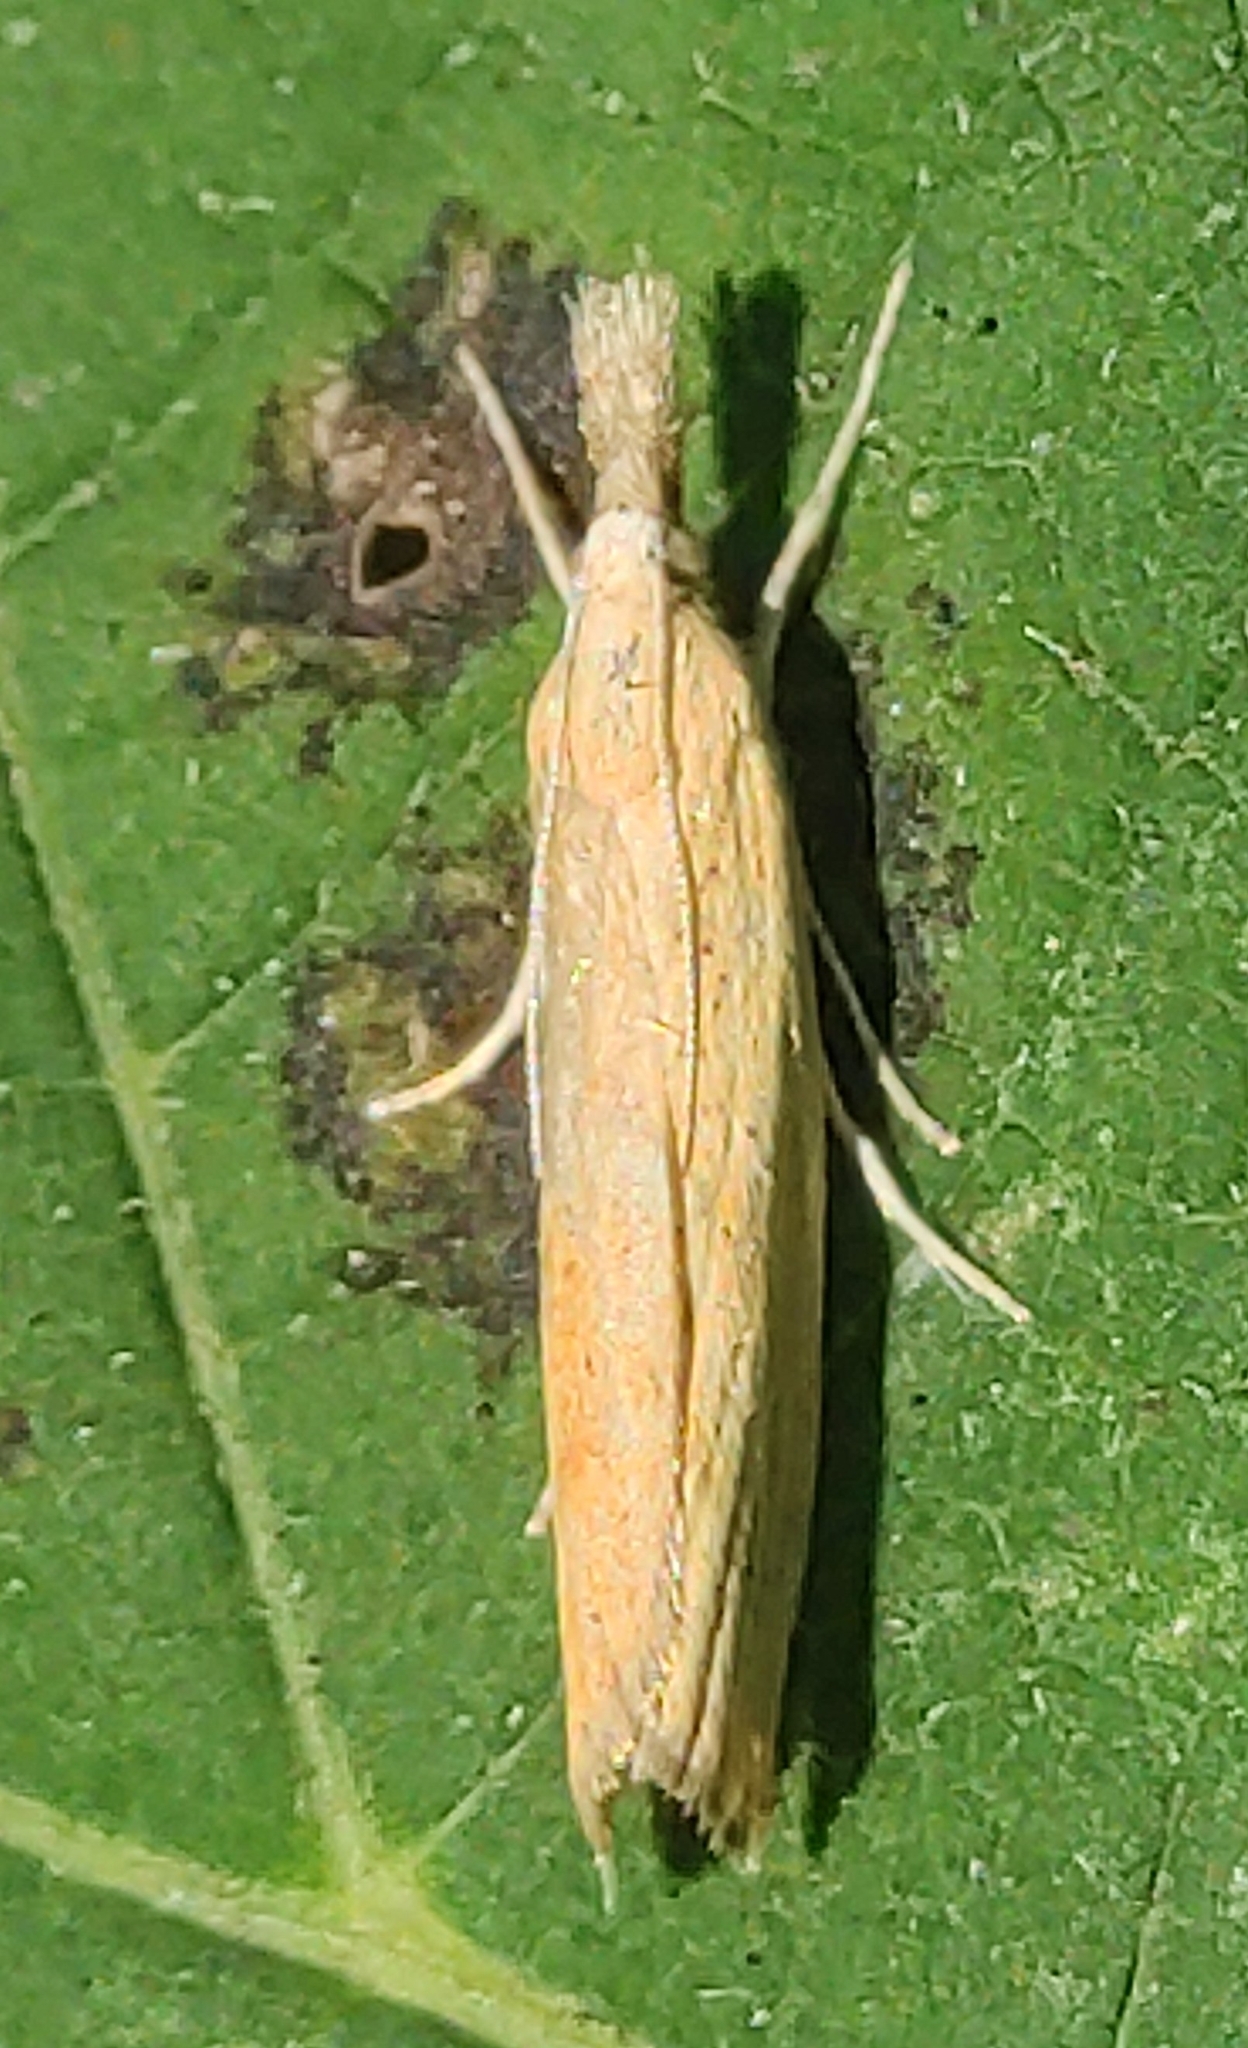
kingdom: Animalia
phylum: Arthropoda
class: Insecta
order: Lepidoptera
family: Crambidae
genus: Agriphila
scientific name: Agriphila inquinatella
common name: Barred grass-veneer
